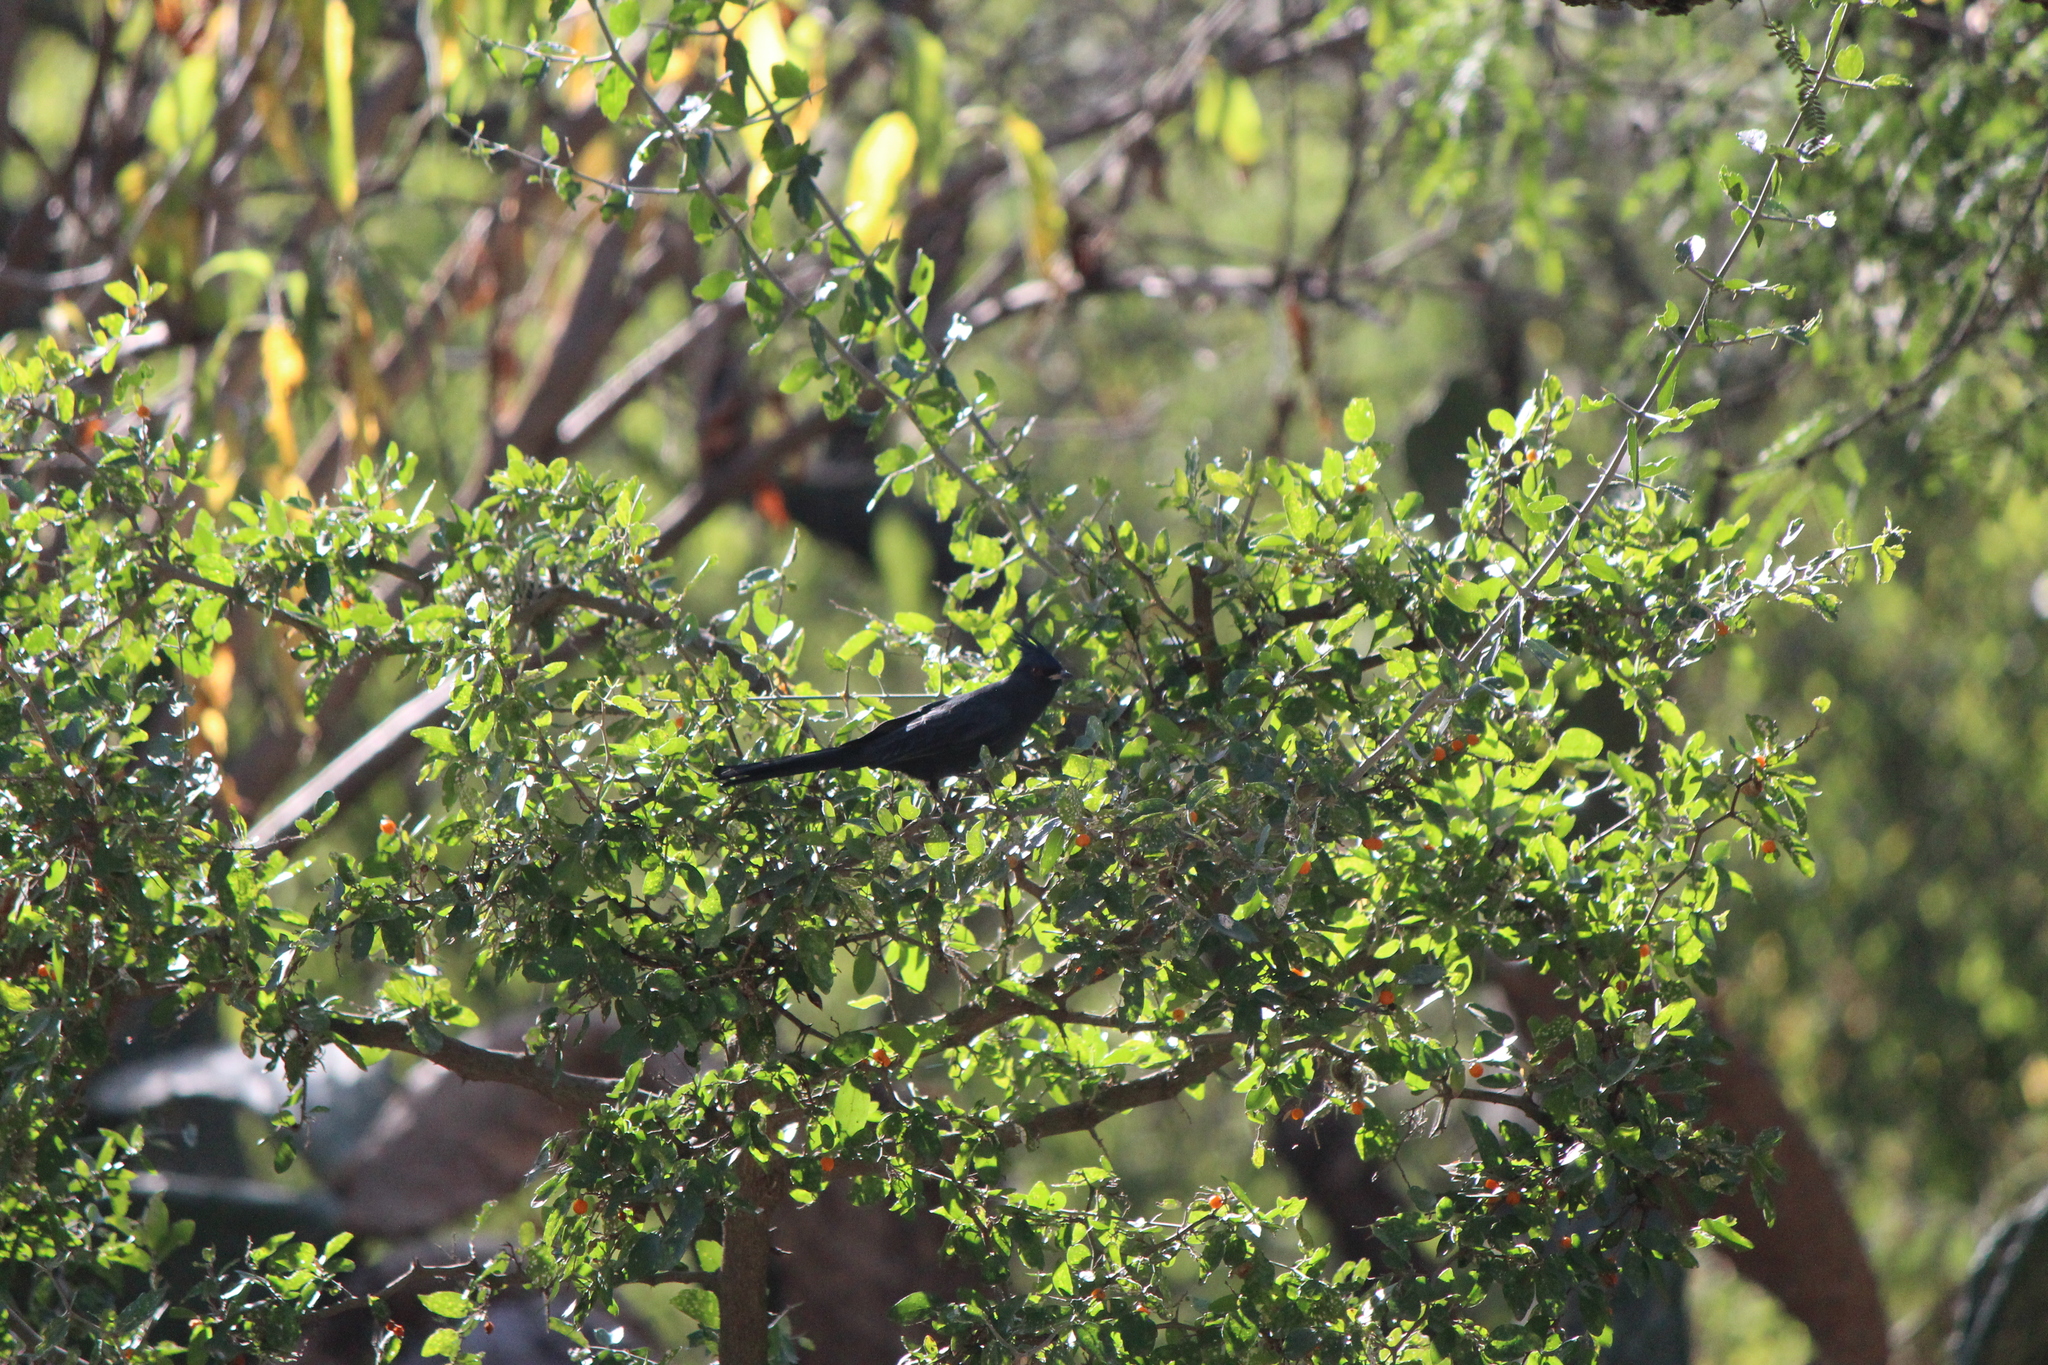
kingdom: Animalia
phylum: Chordata
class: Aves
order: Passeriformes
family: Ptilogonatidae
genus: Phainopepla
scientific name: Phainopepla nitens
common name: Phainopepla
